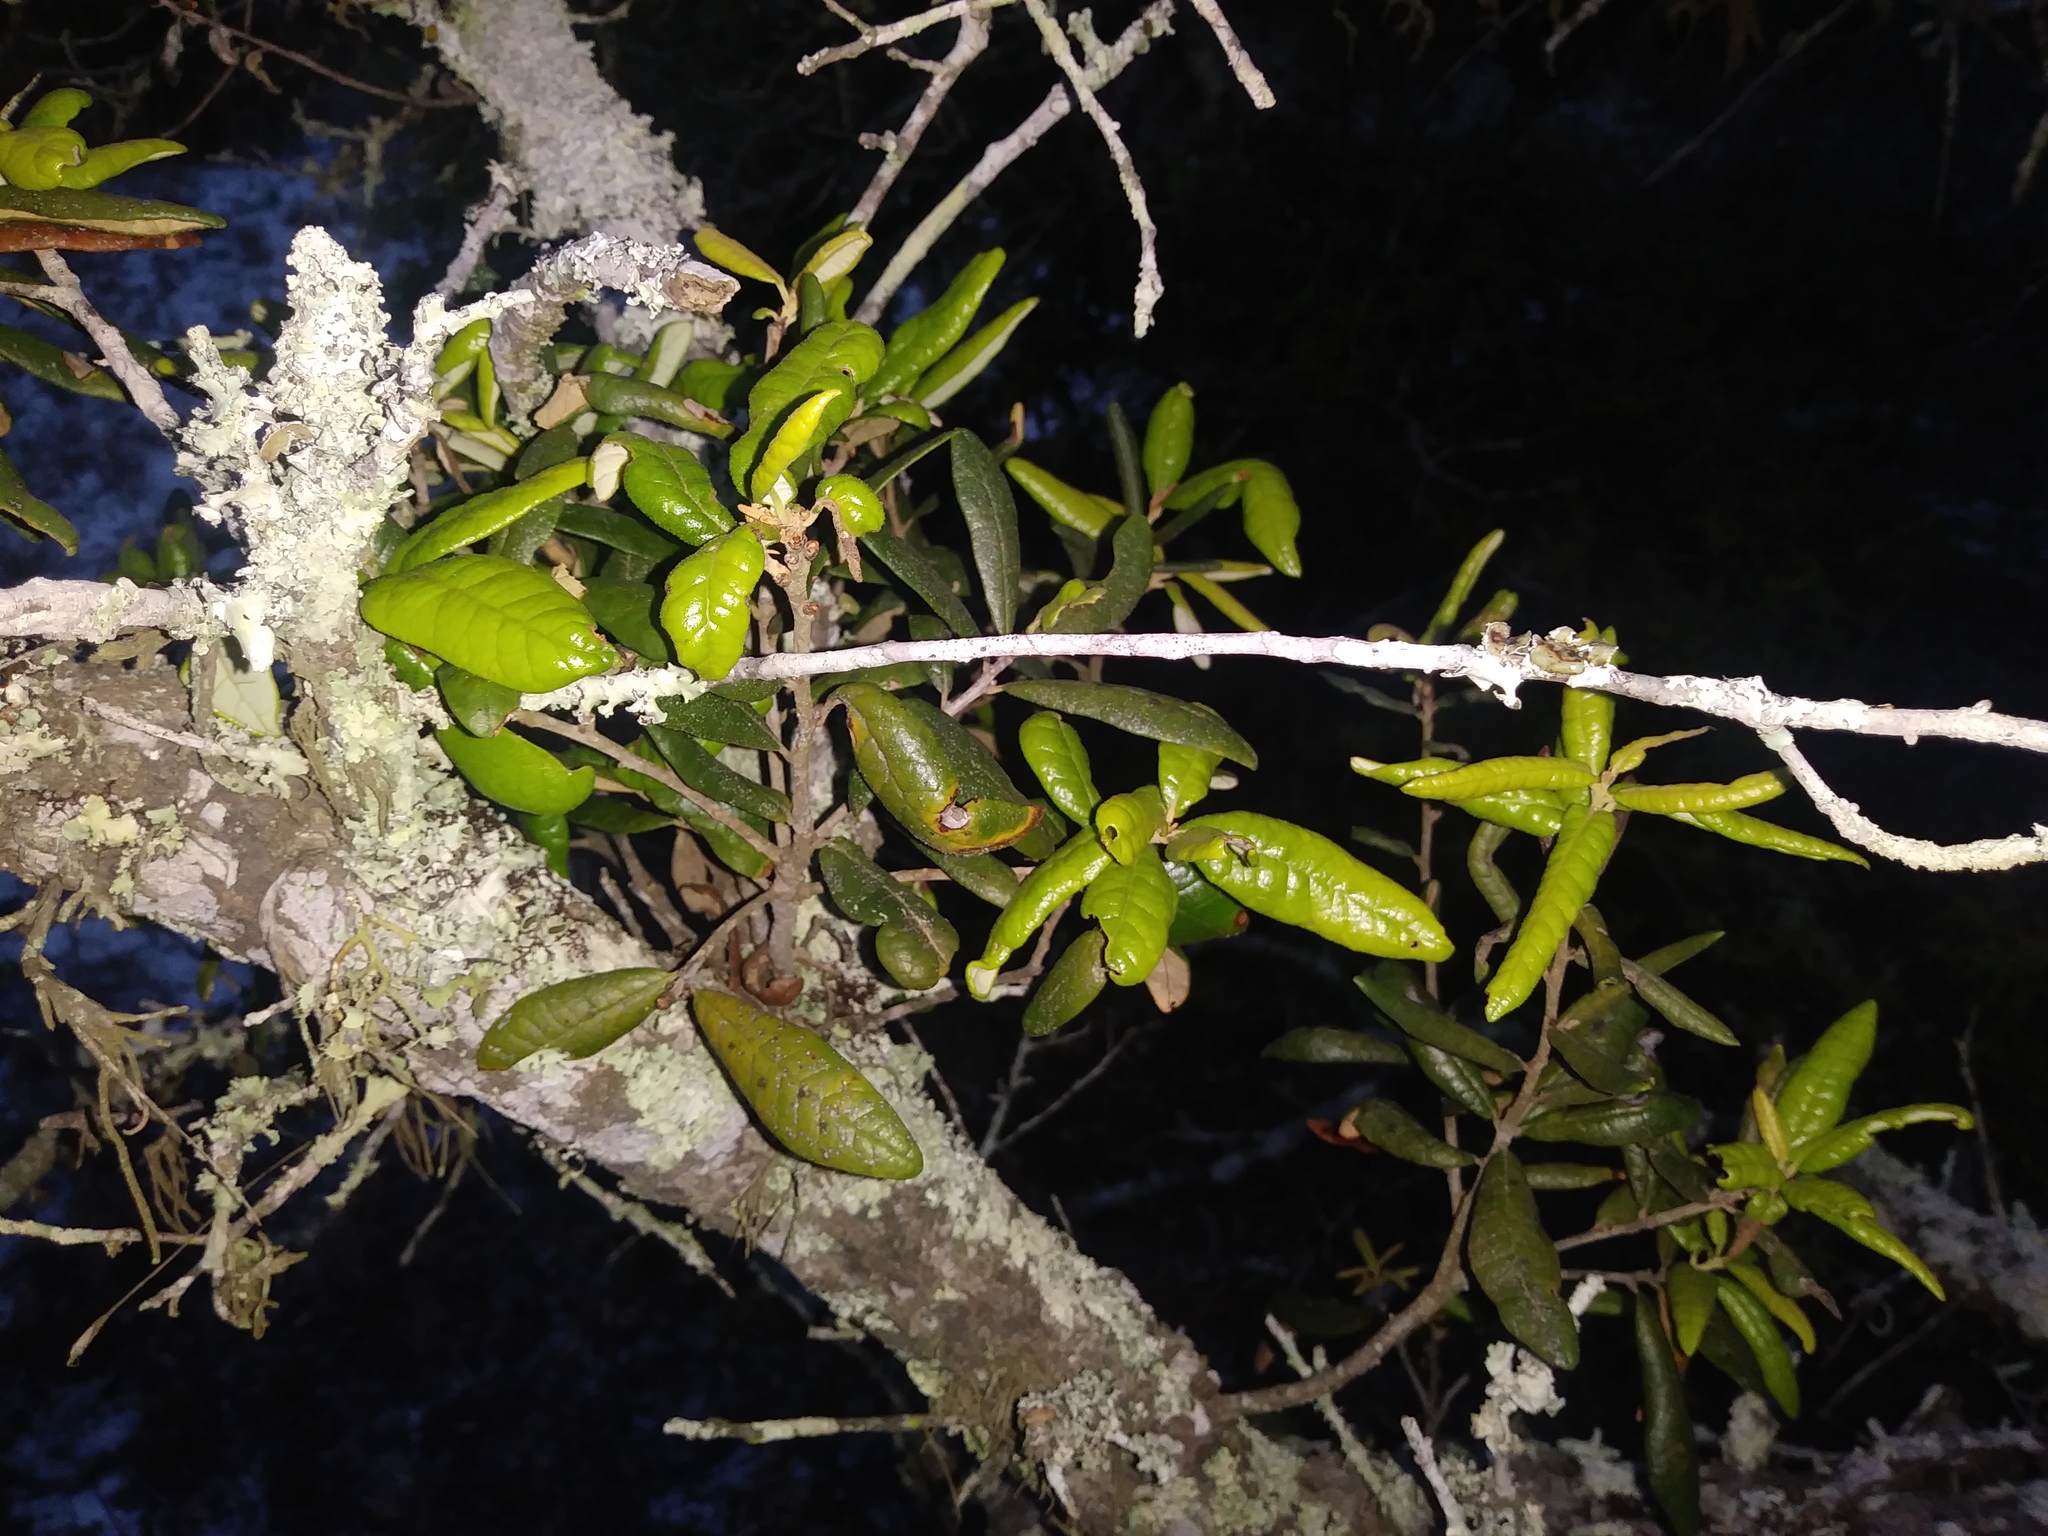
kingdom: Plantae
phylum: Tracheophyta
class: Magnoliopsida
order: Fagales
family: Fagaceae
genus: Quercus
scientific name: Quercus geminata
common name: Sand live oak
